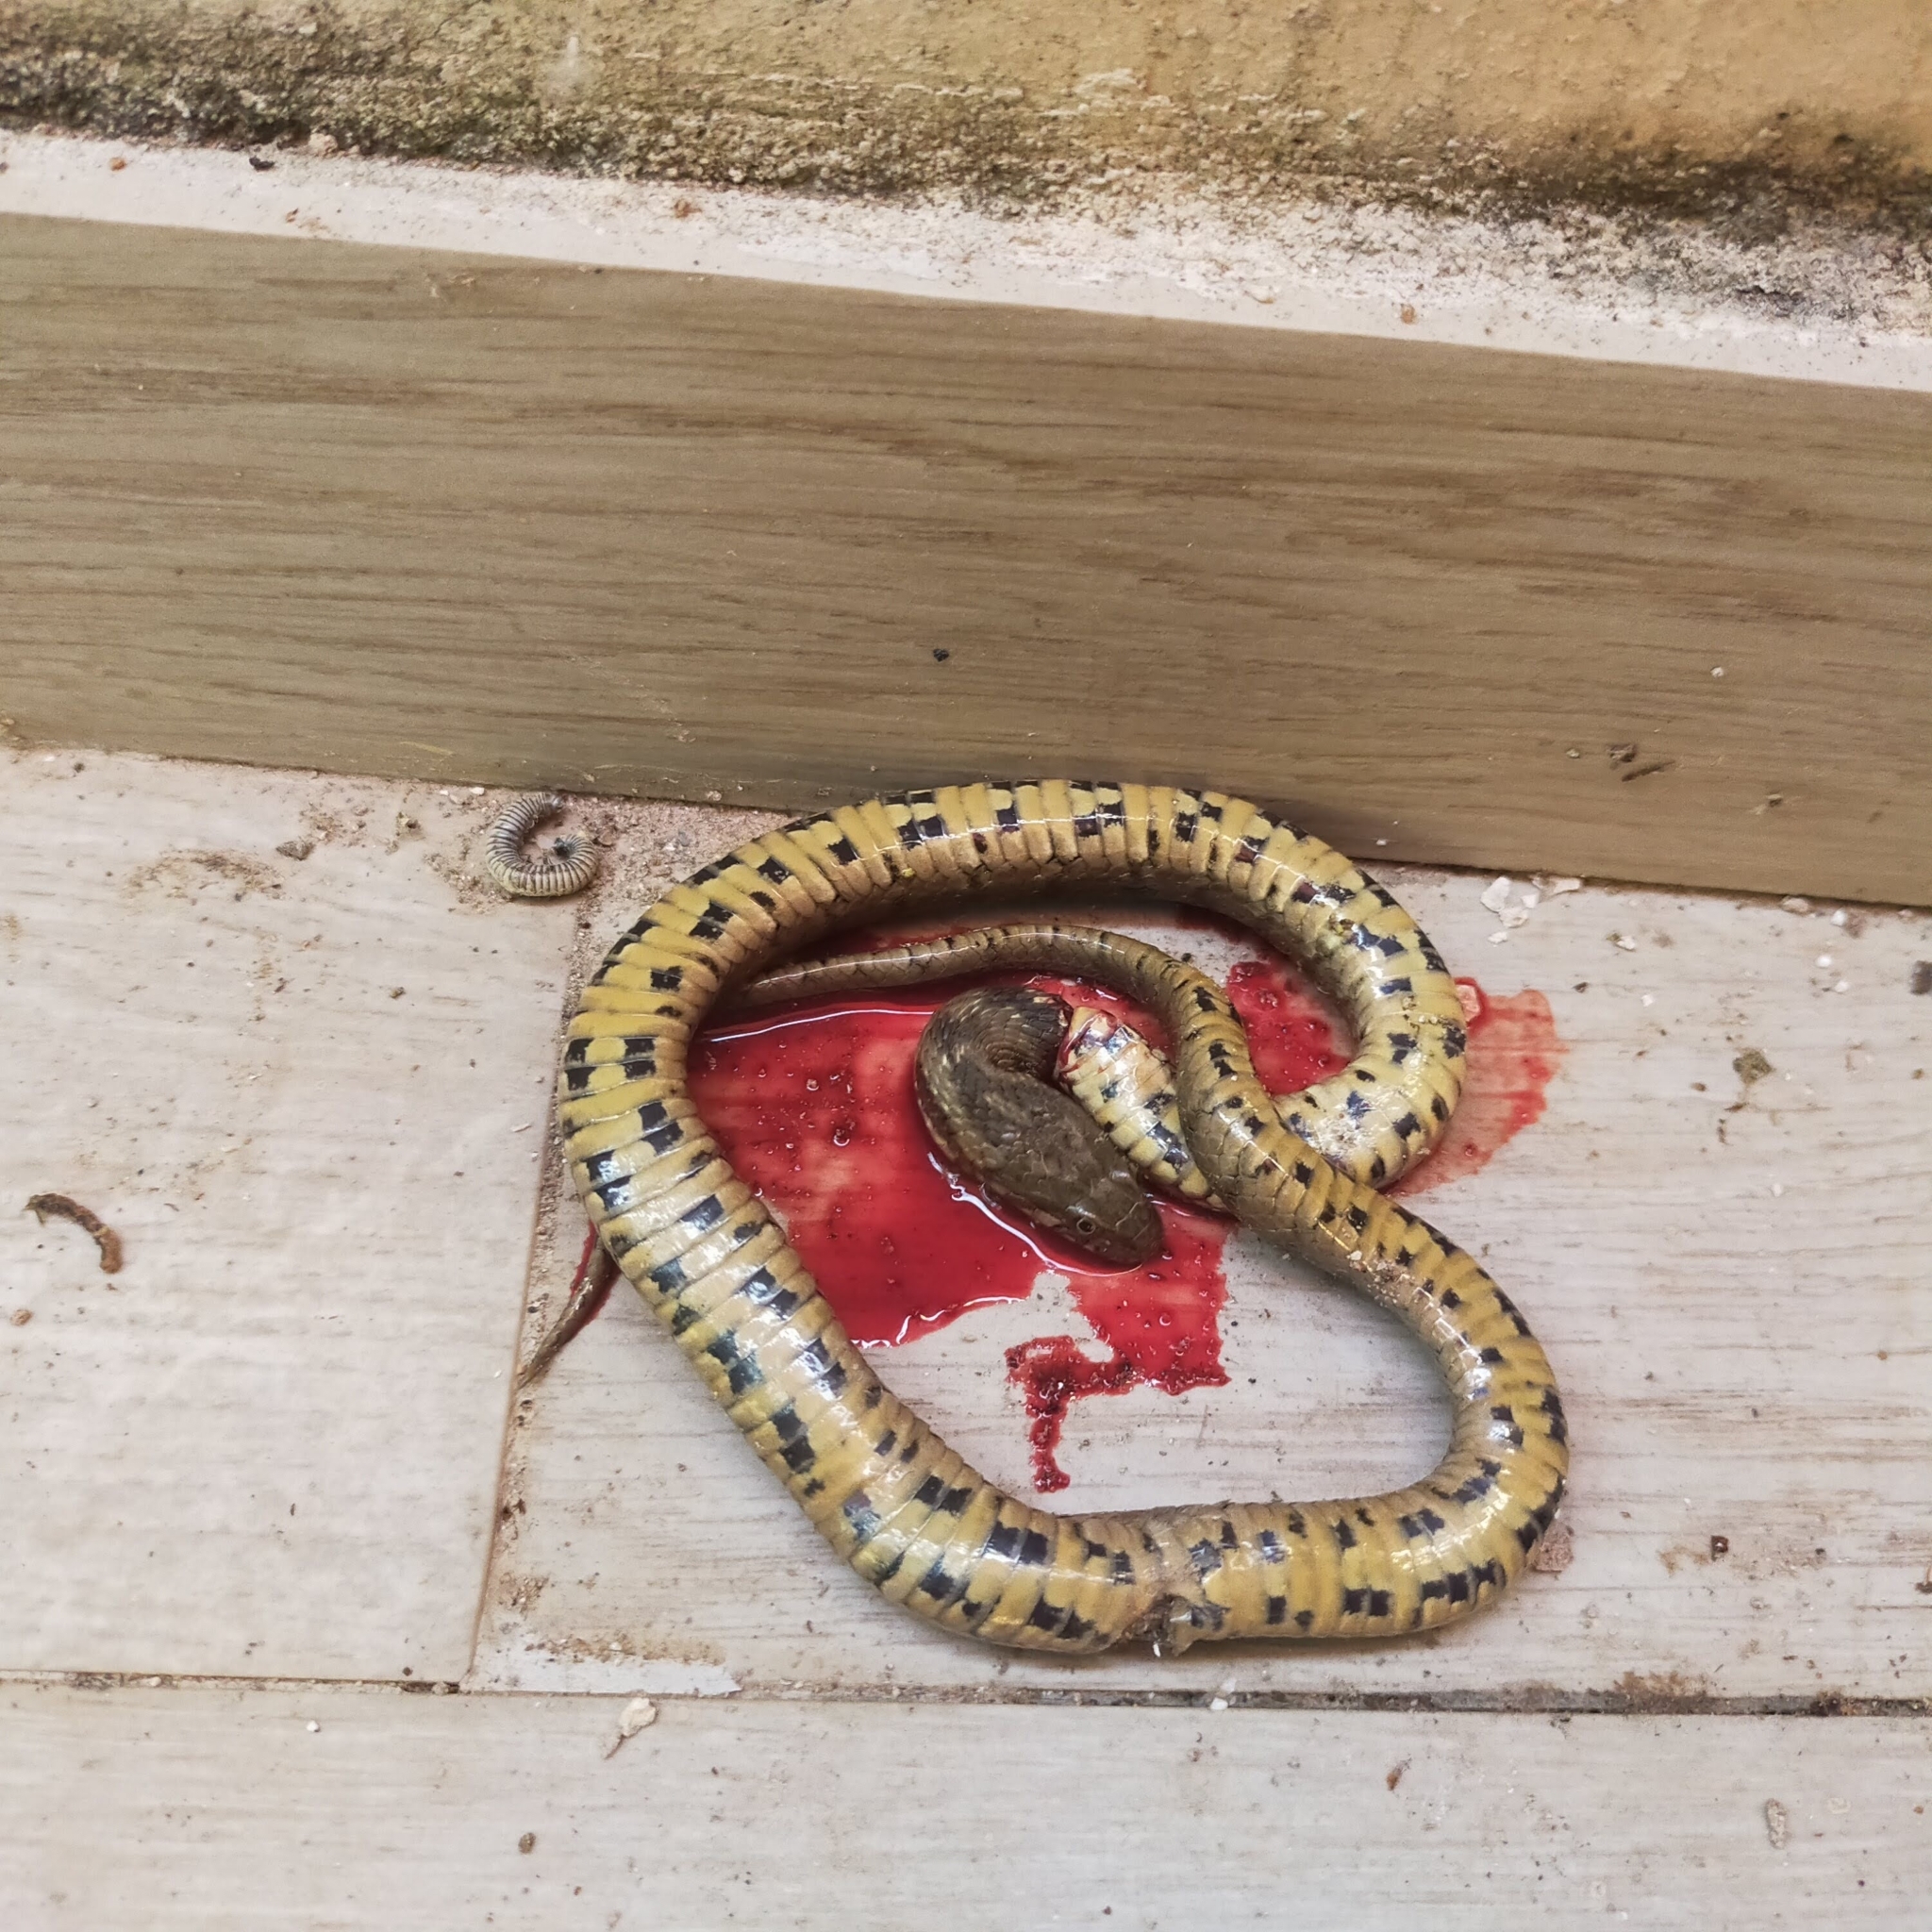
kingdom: Animalia
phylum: Chordata
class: Squamata
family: Colubridae
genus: Natrix
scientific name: Natrix maura
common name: Viperine water snake
